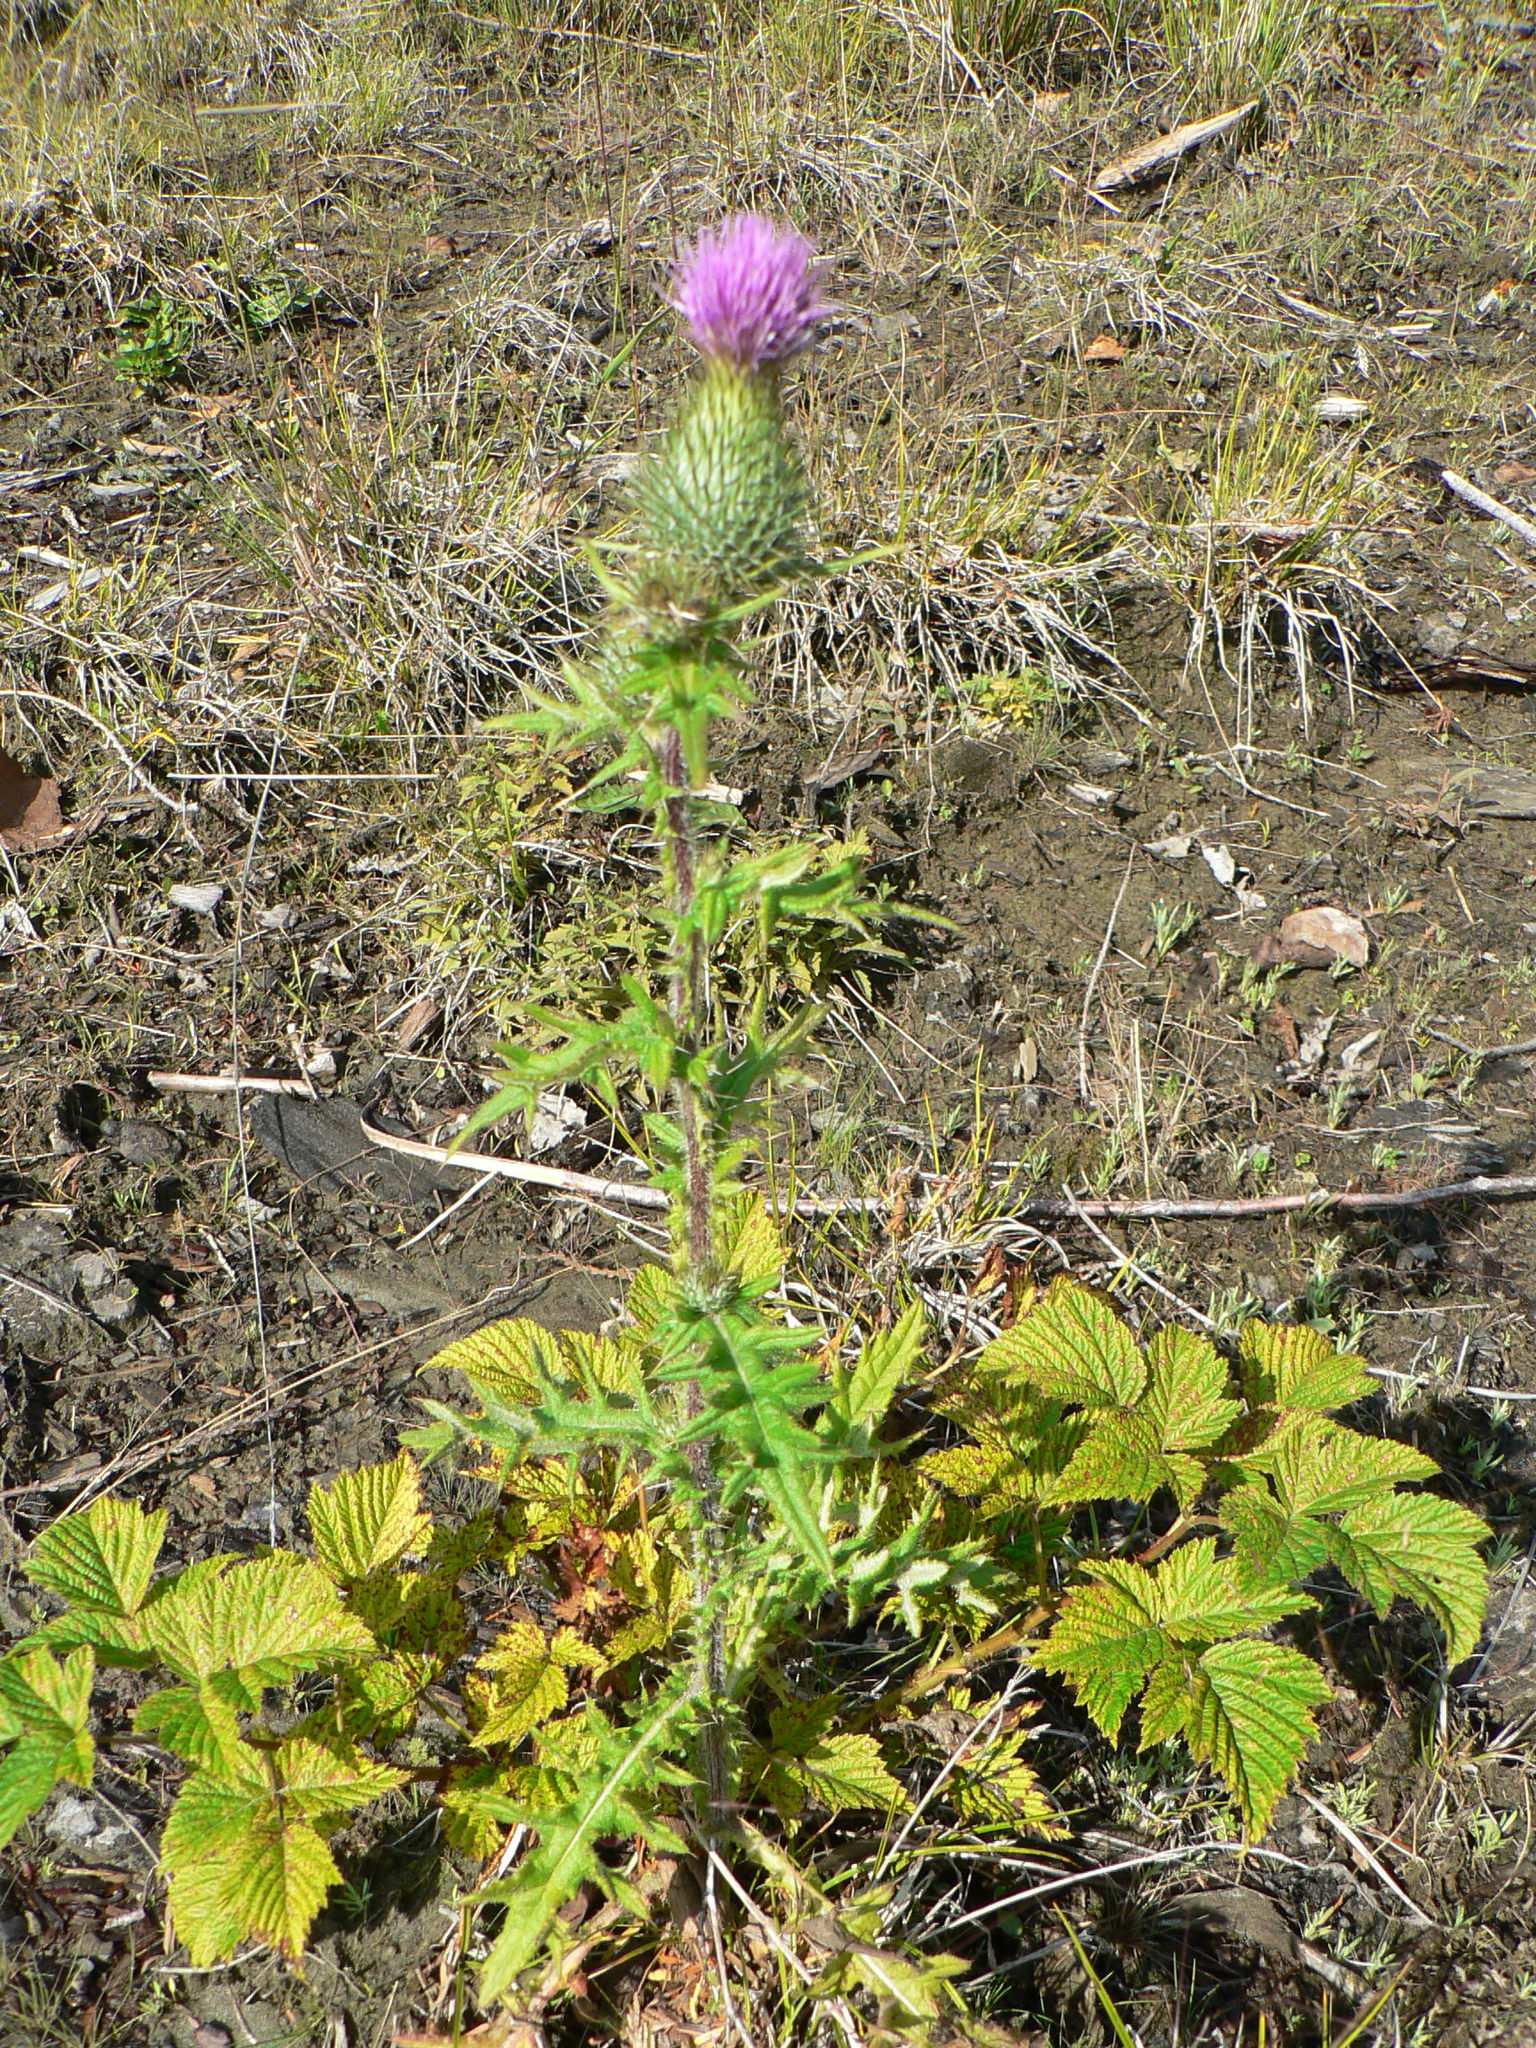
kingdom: Plantae
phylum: Tracheophyta
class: Magnoliopsida
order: Asterales
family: Asteraceae
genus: Cirsium
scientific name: Cirsium vulgare
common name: Bull thistle
